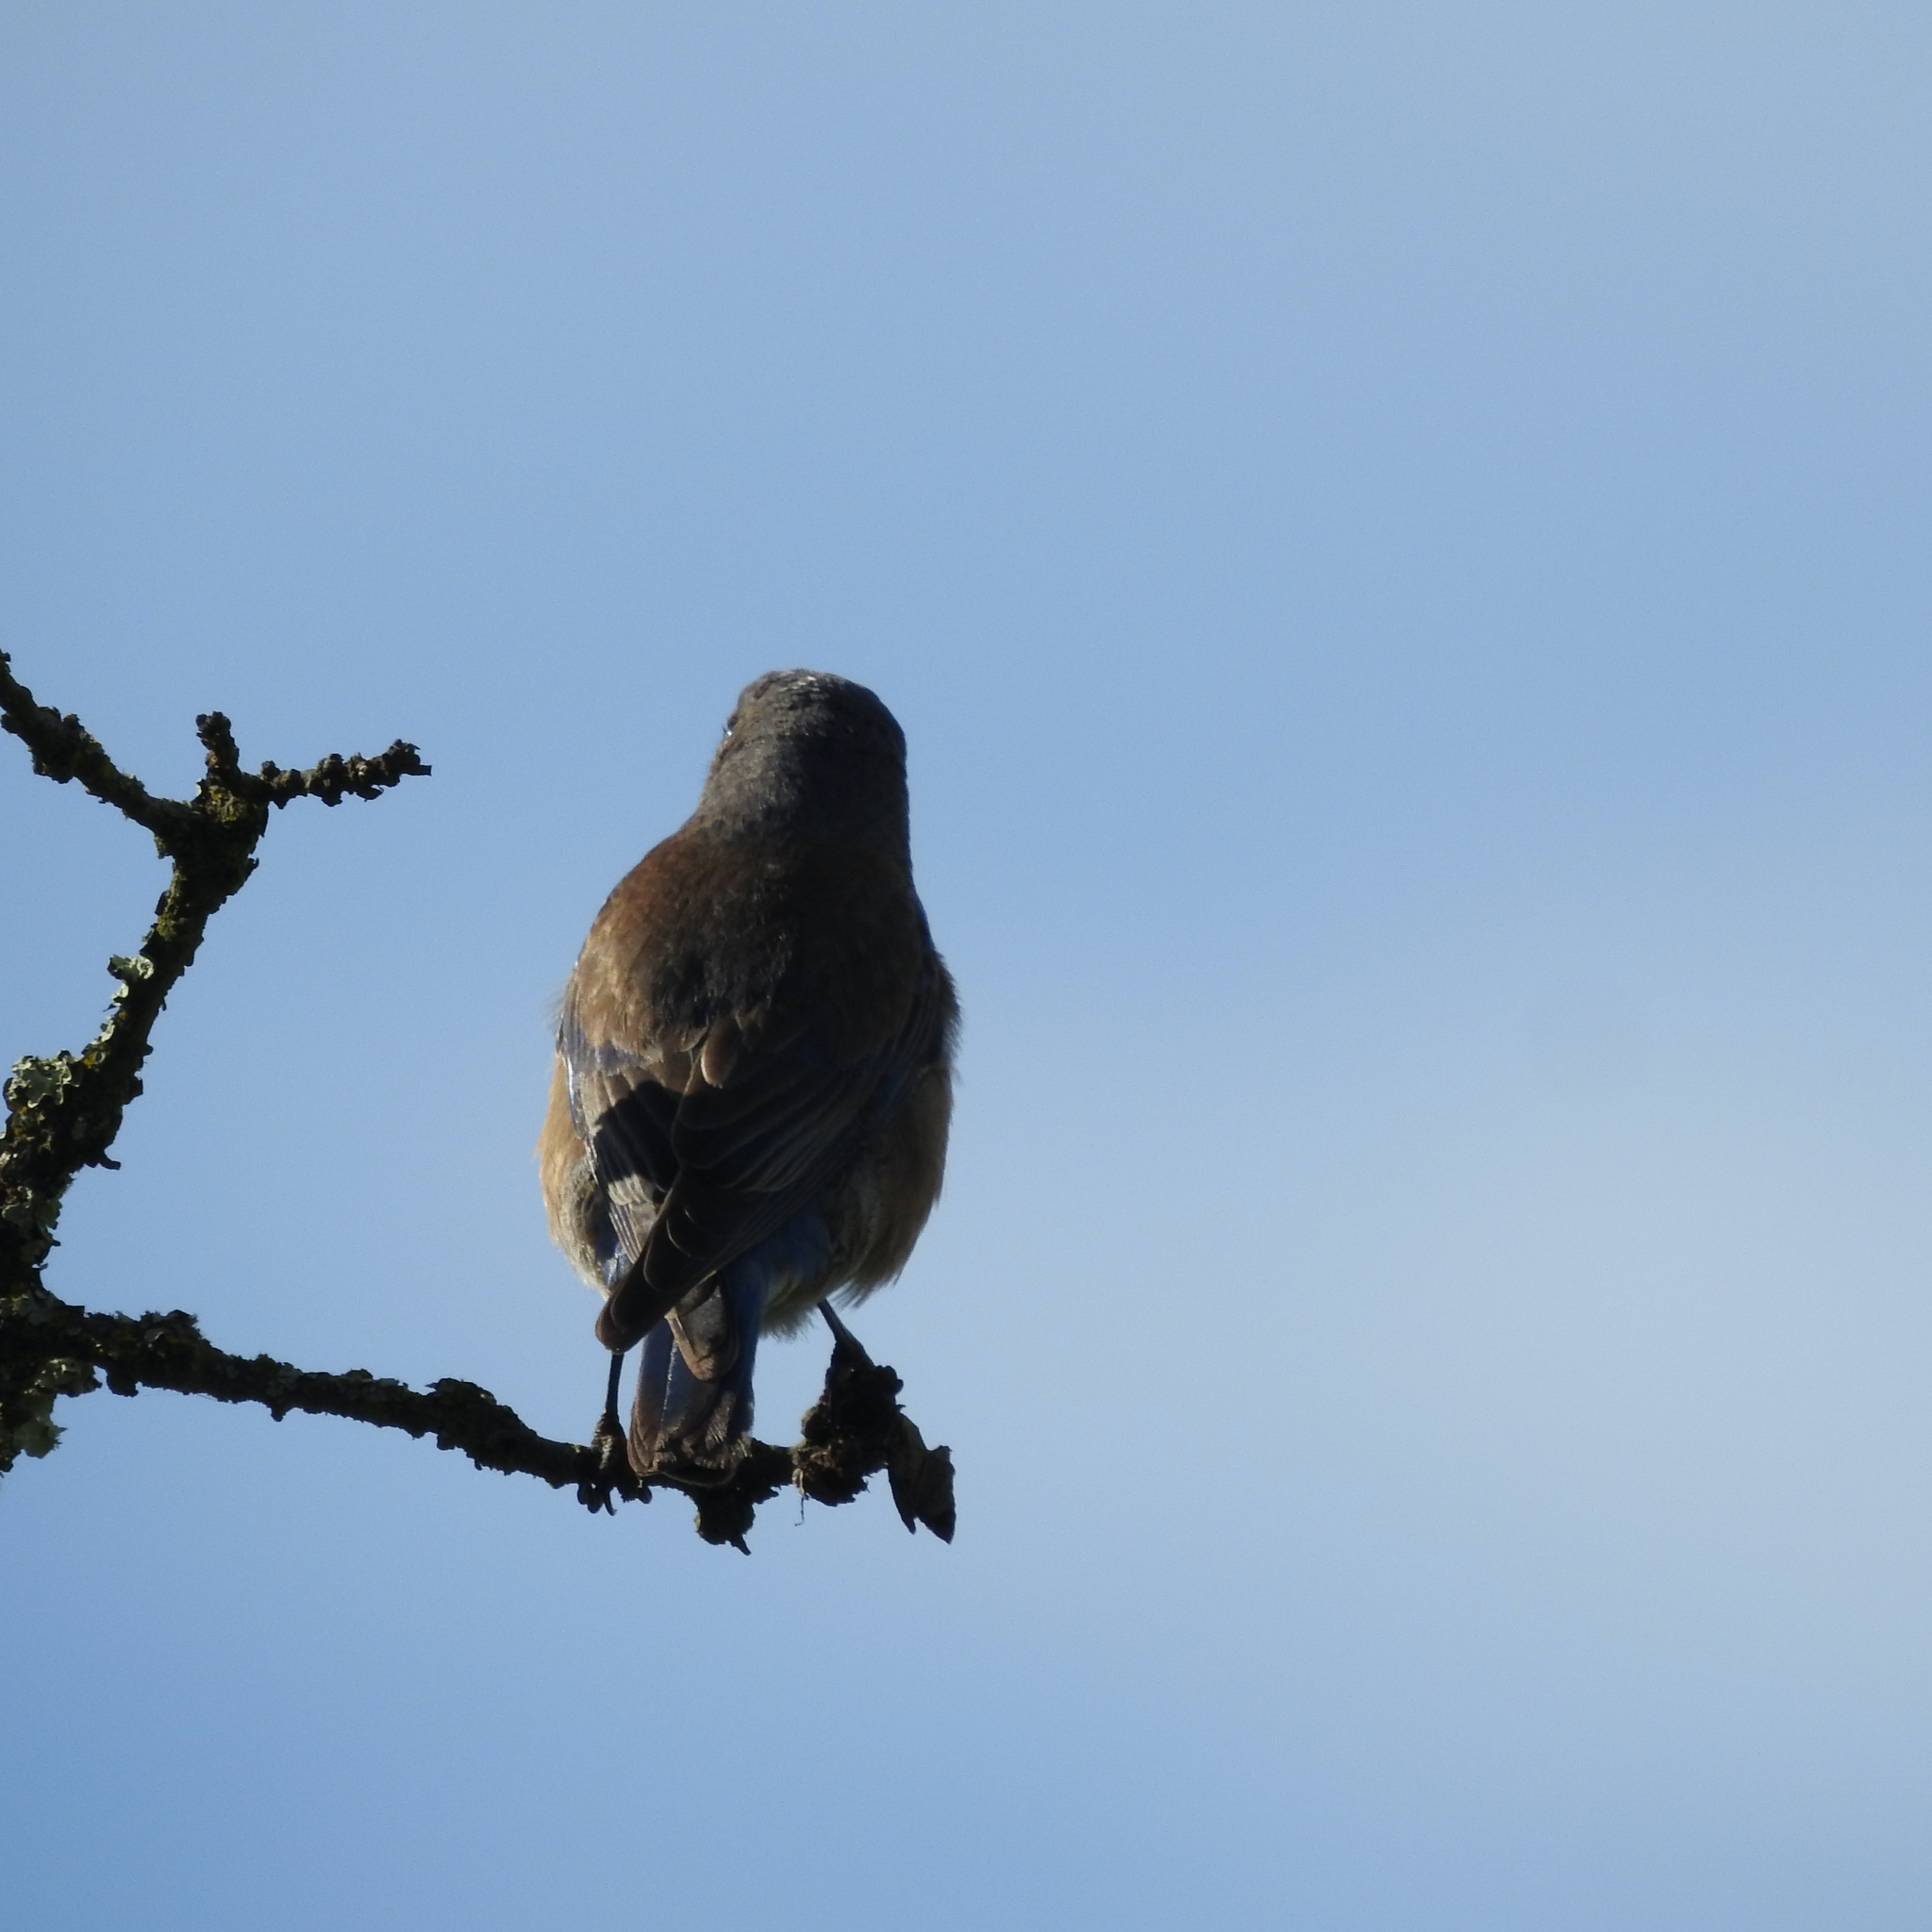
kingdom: Animalia
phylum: Chordata
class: Aves
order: Passeriformes
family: Turdidae
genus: Sialia
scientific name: Sialia mexicana
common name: Western bluebird
